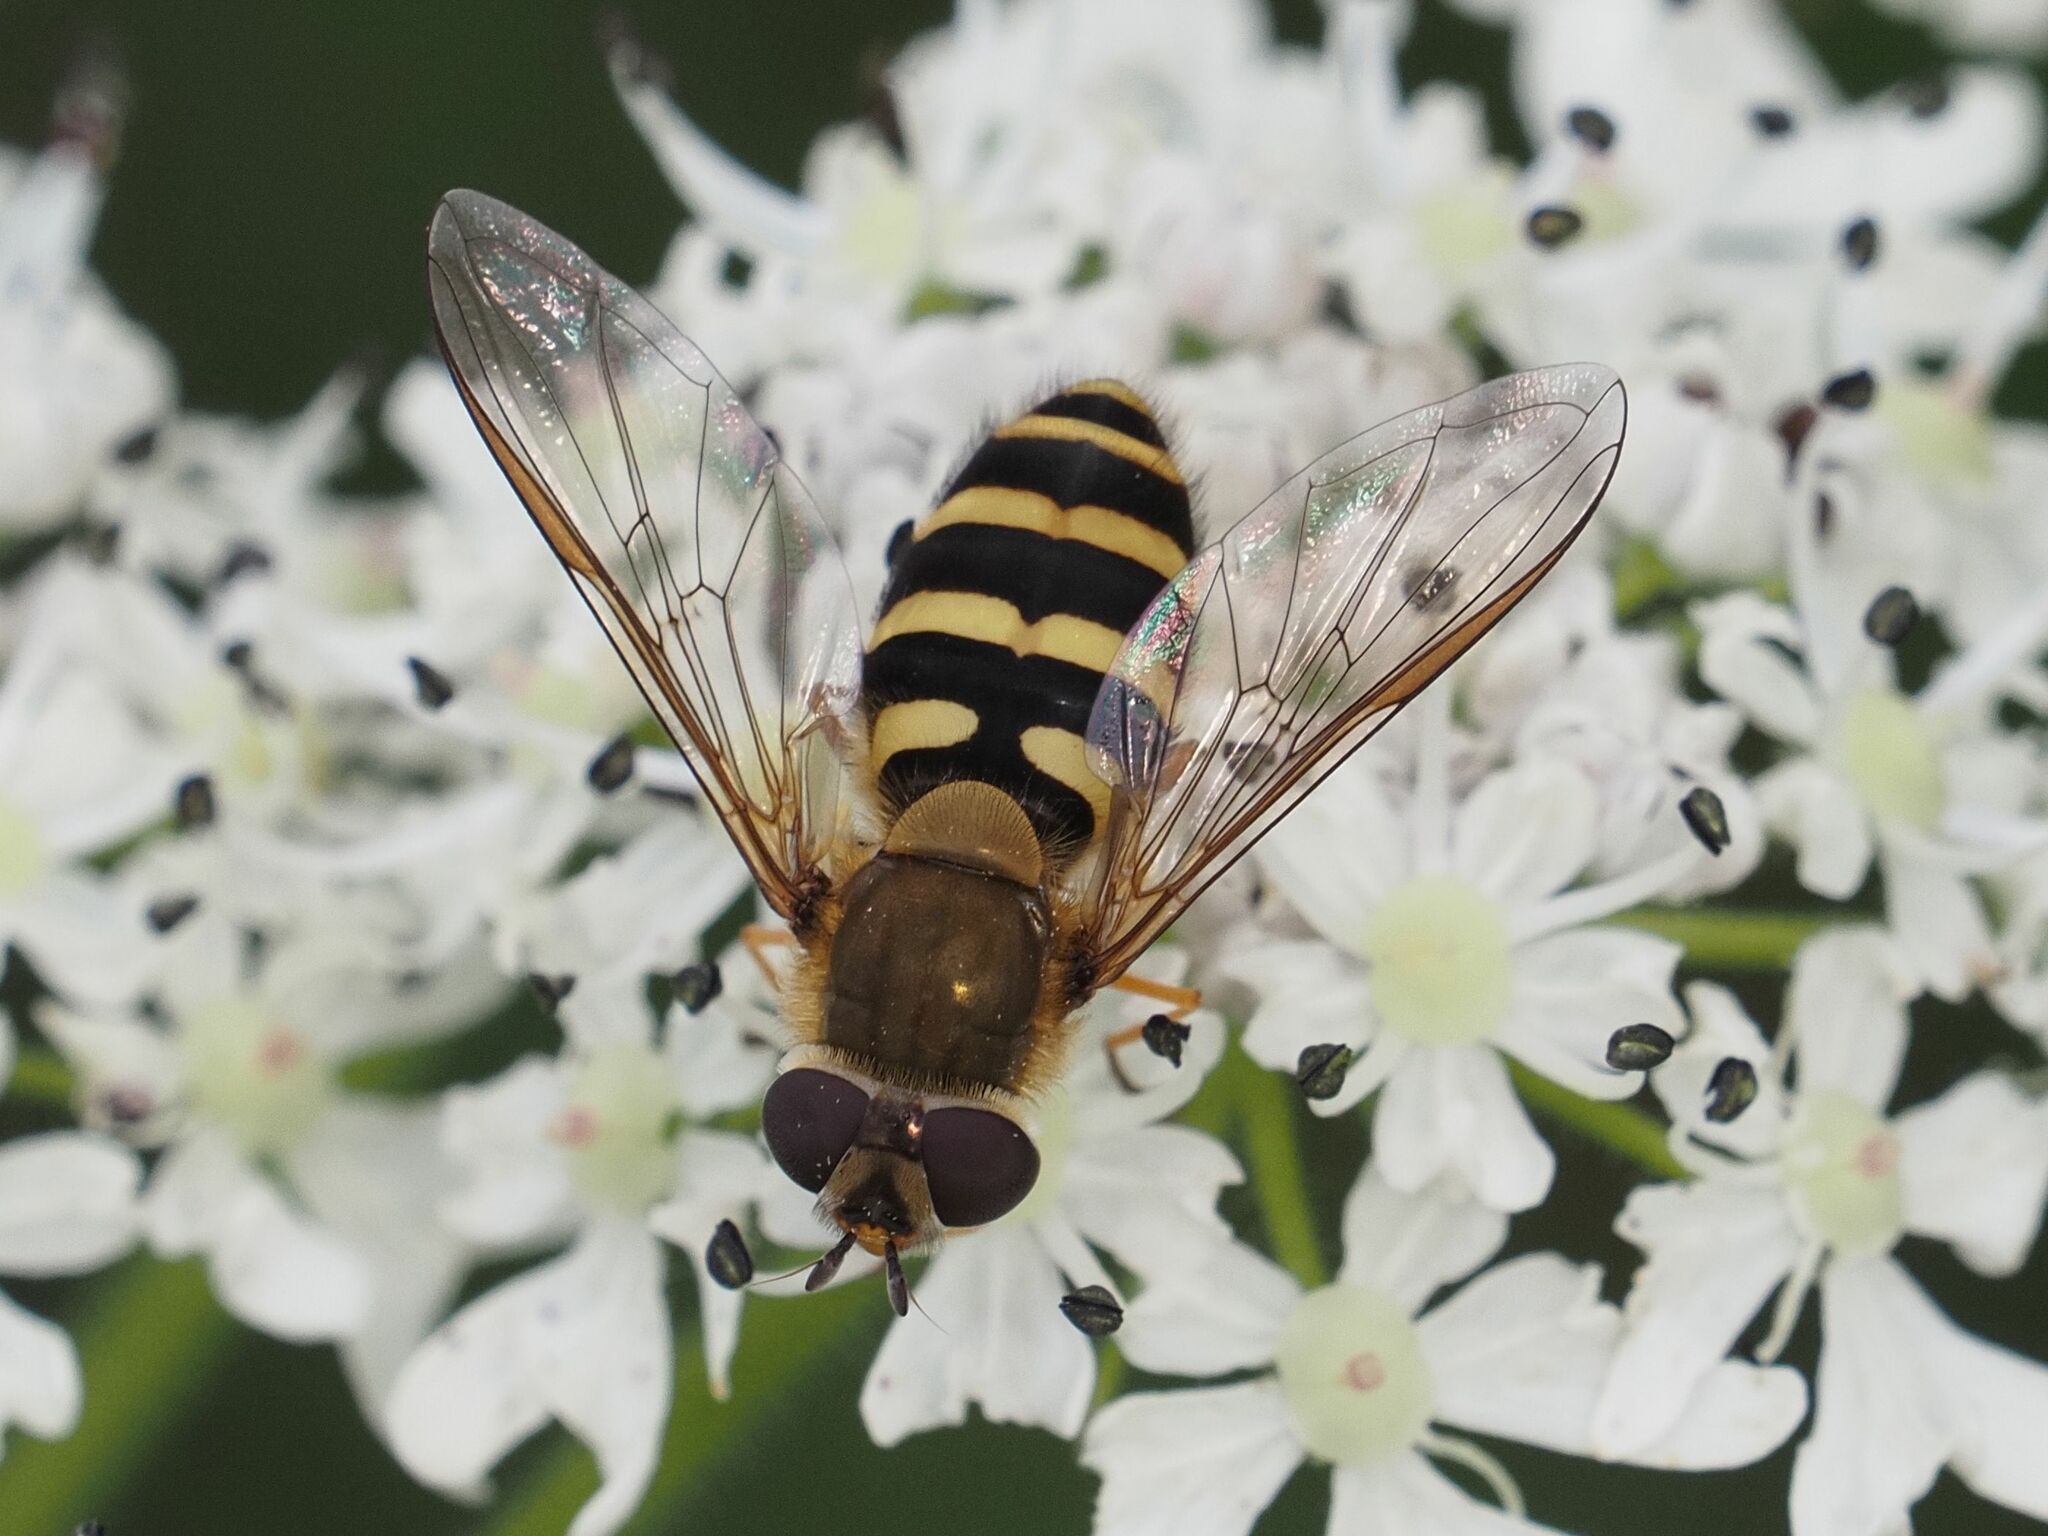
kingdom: Animalia
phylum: Arthropoda
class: Insecta
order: Diptera
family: Syrphidae
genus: Syrphus
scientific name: Syrphus torvus
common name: Hairy-eyed flower fly
